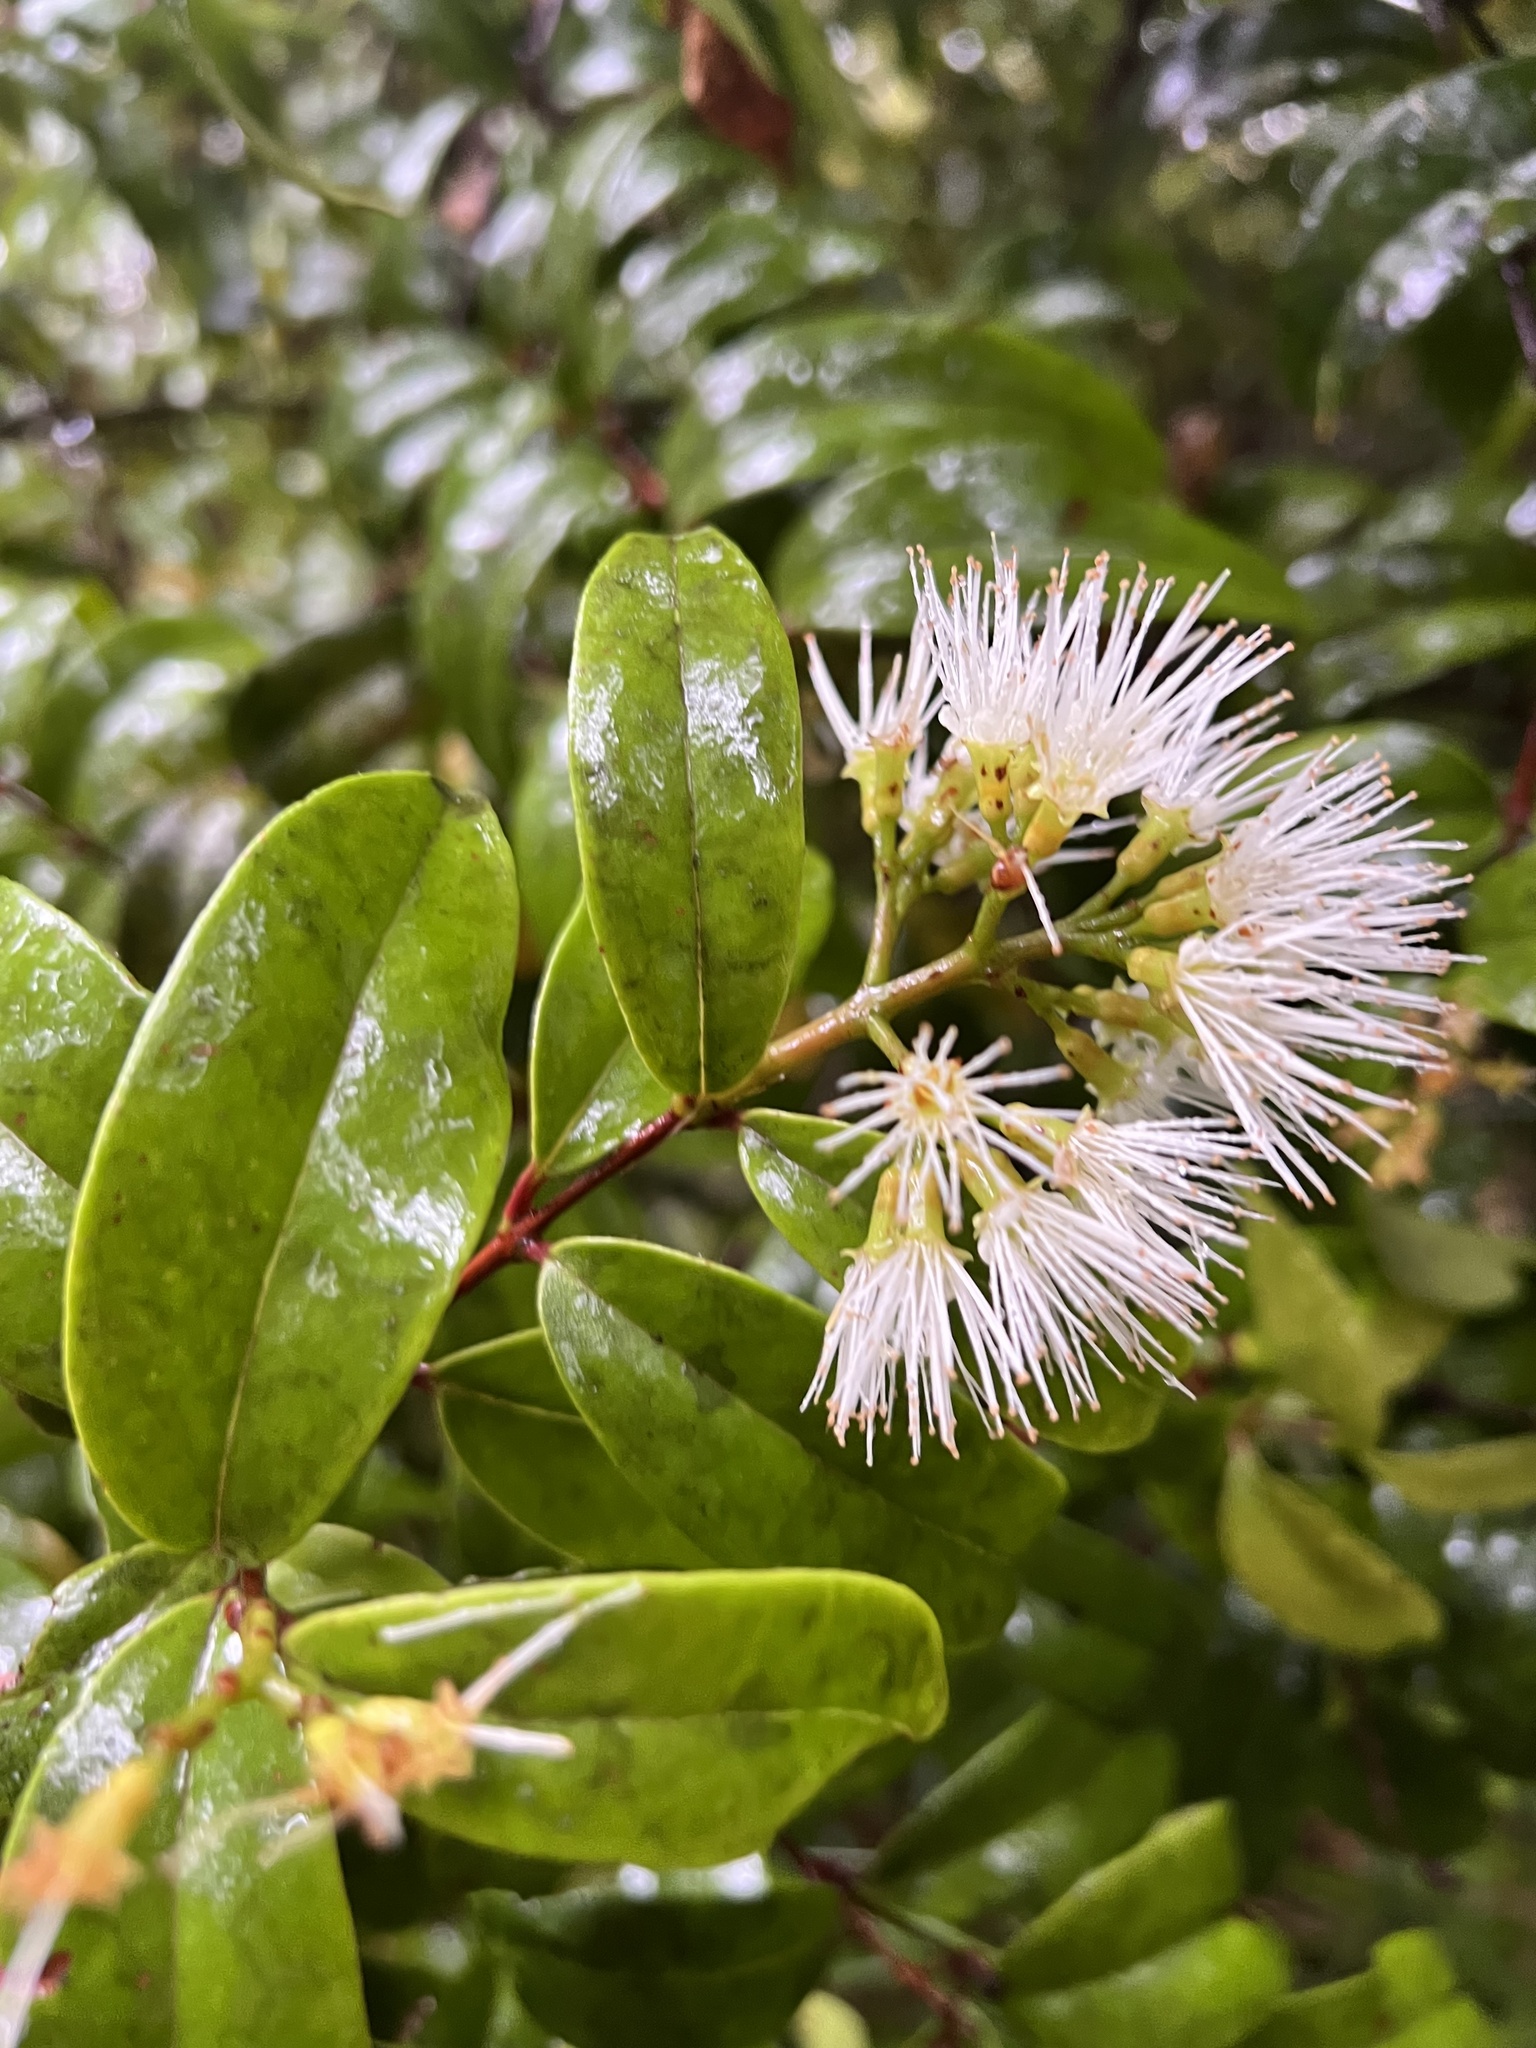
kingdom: Plantae
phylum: Tracheophyta
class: Magnoliopsida
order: Myrtales
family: Myrtaceae
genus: Metrosideros
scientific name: Metrosideros albiflora
